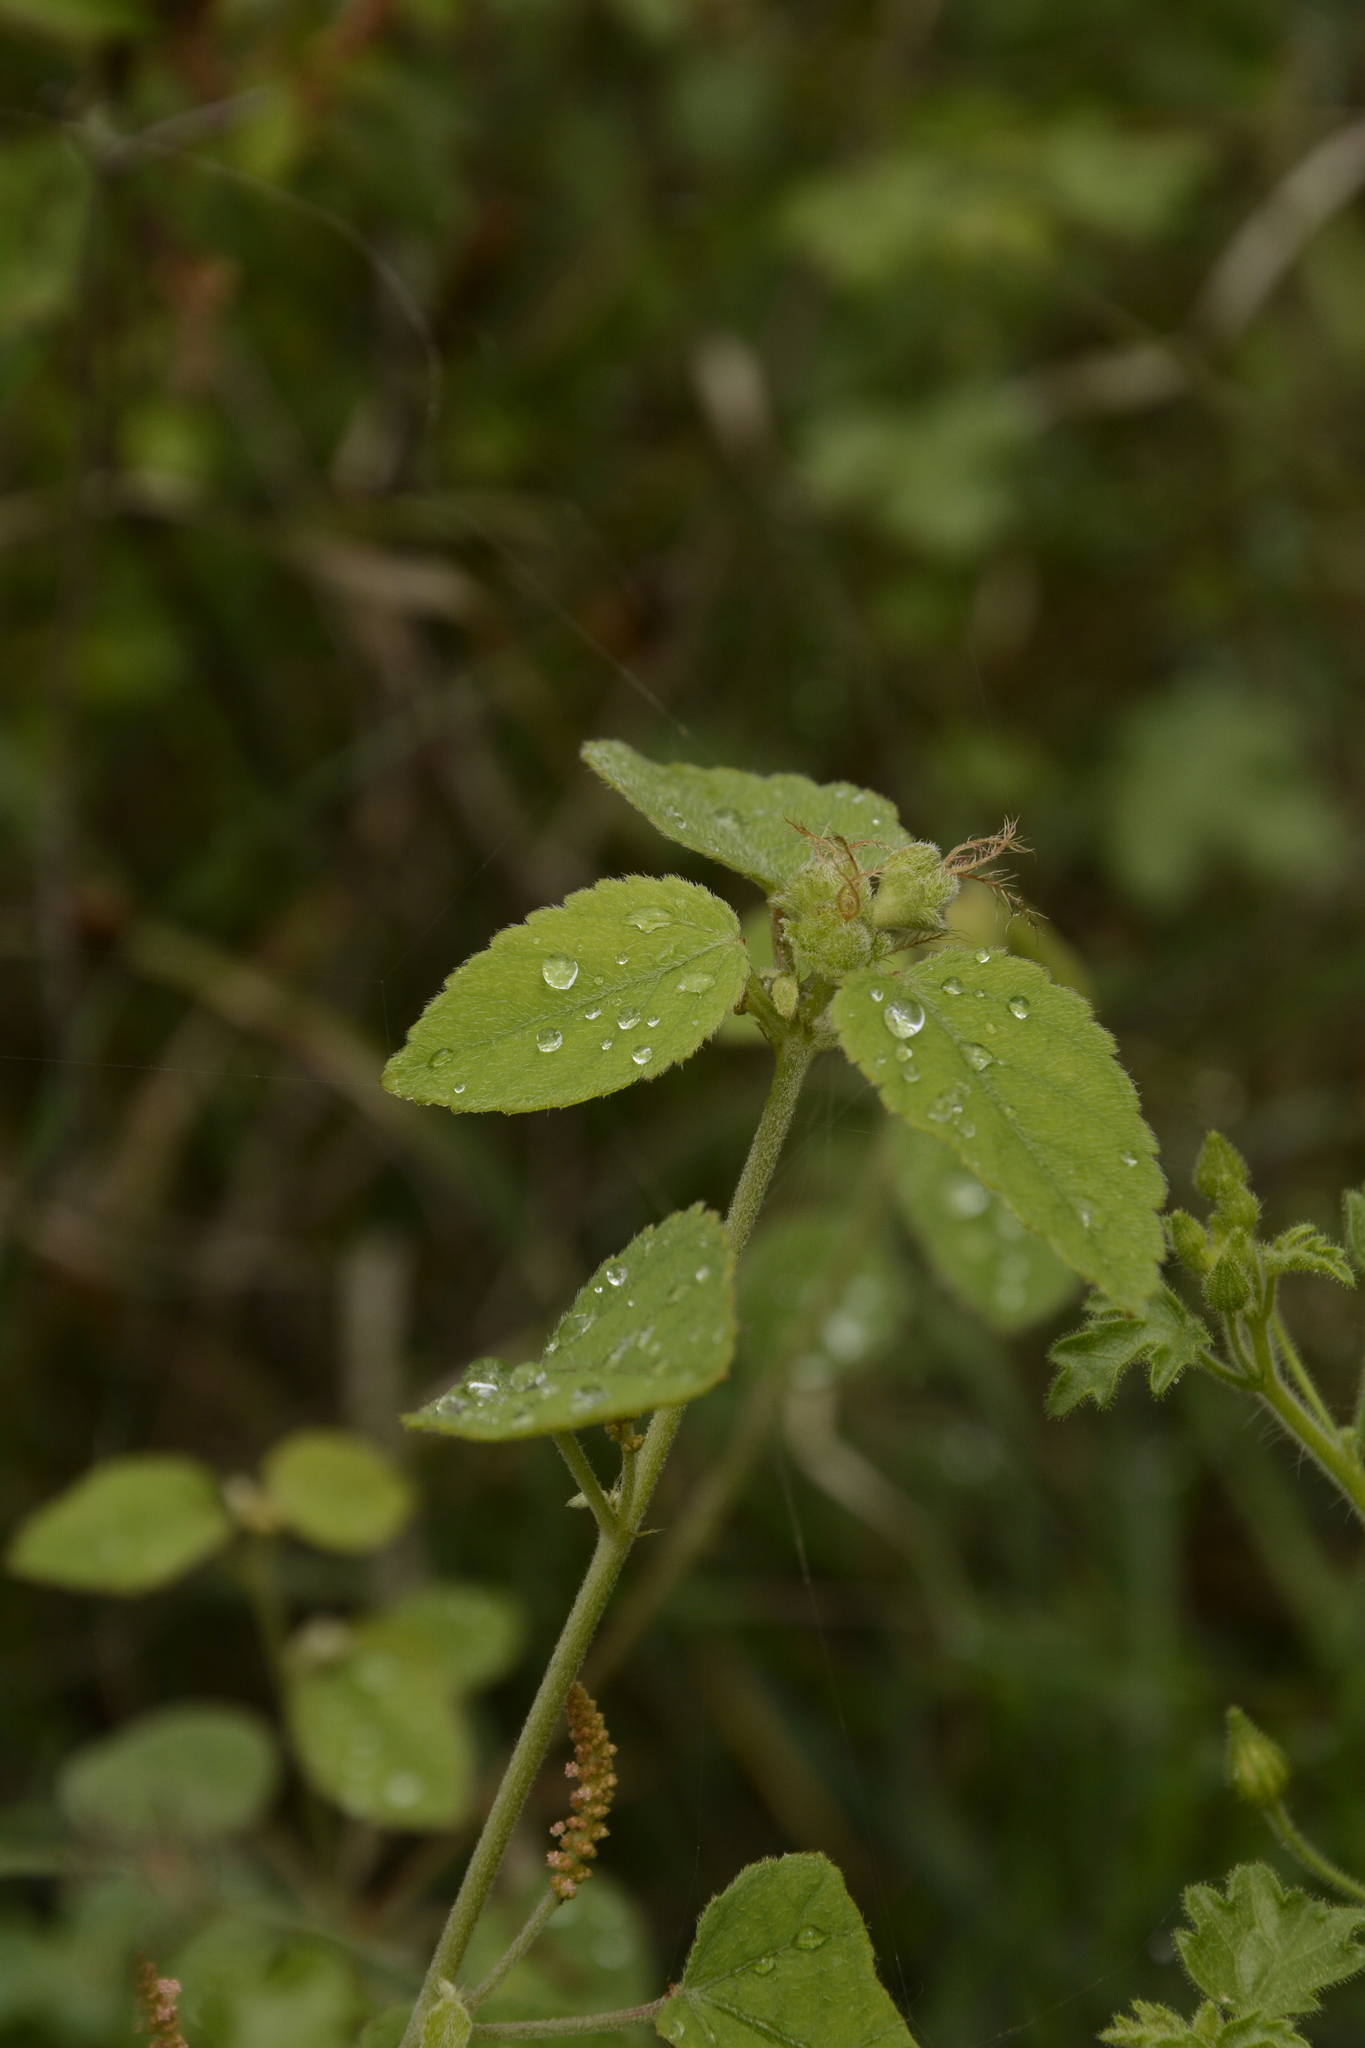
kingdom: Plantae
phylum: Tracheophyta
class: Magnoliopsida
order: Malpighiales
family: Euphorbiaceae
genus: Acalypha
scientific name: Acalypha capitata
